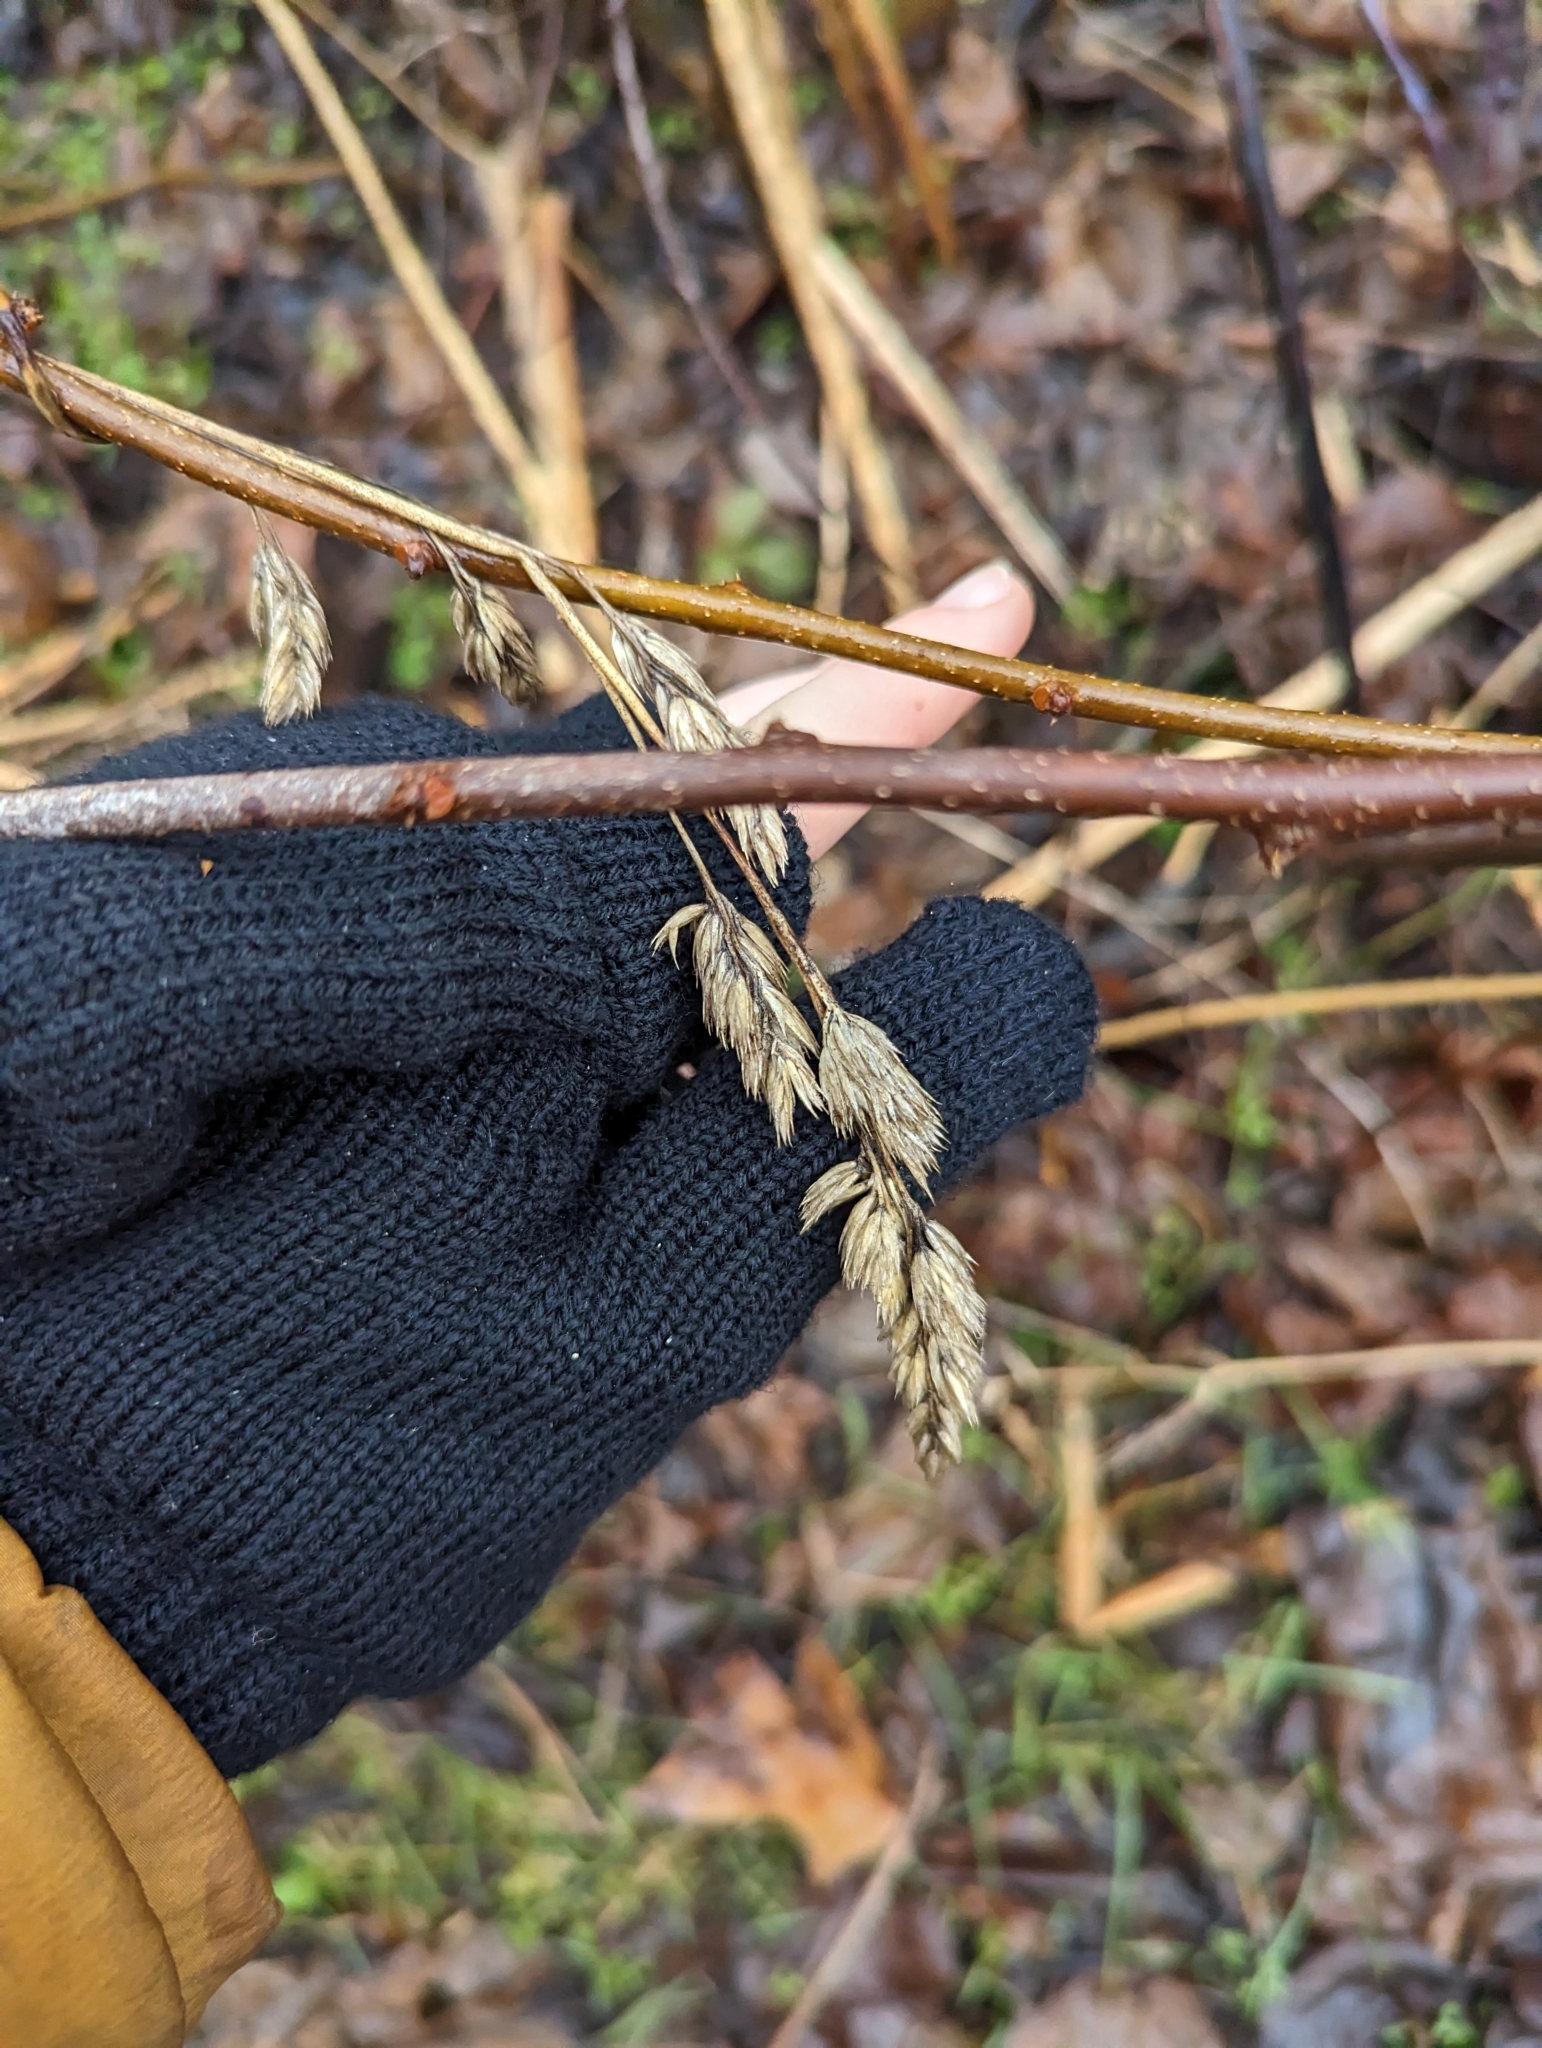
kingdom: Plantae
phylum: Tracheophyta
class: Liliopsida
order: Poales
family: Poaceae
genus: Dactylis
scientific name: Dactylis glomerata
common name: Orchardgrass
